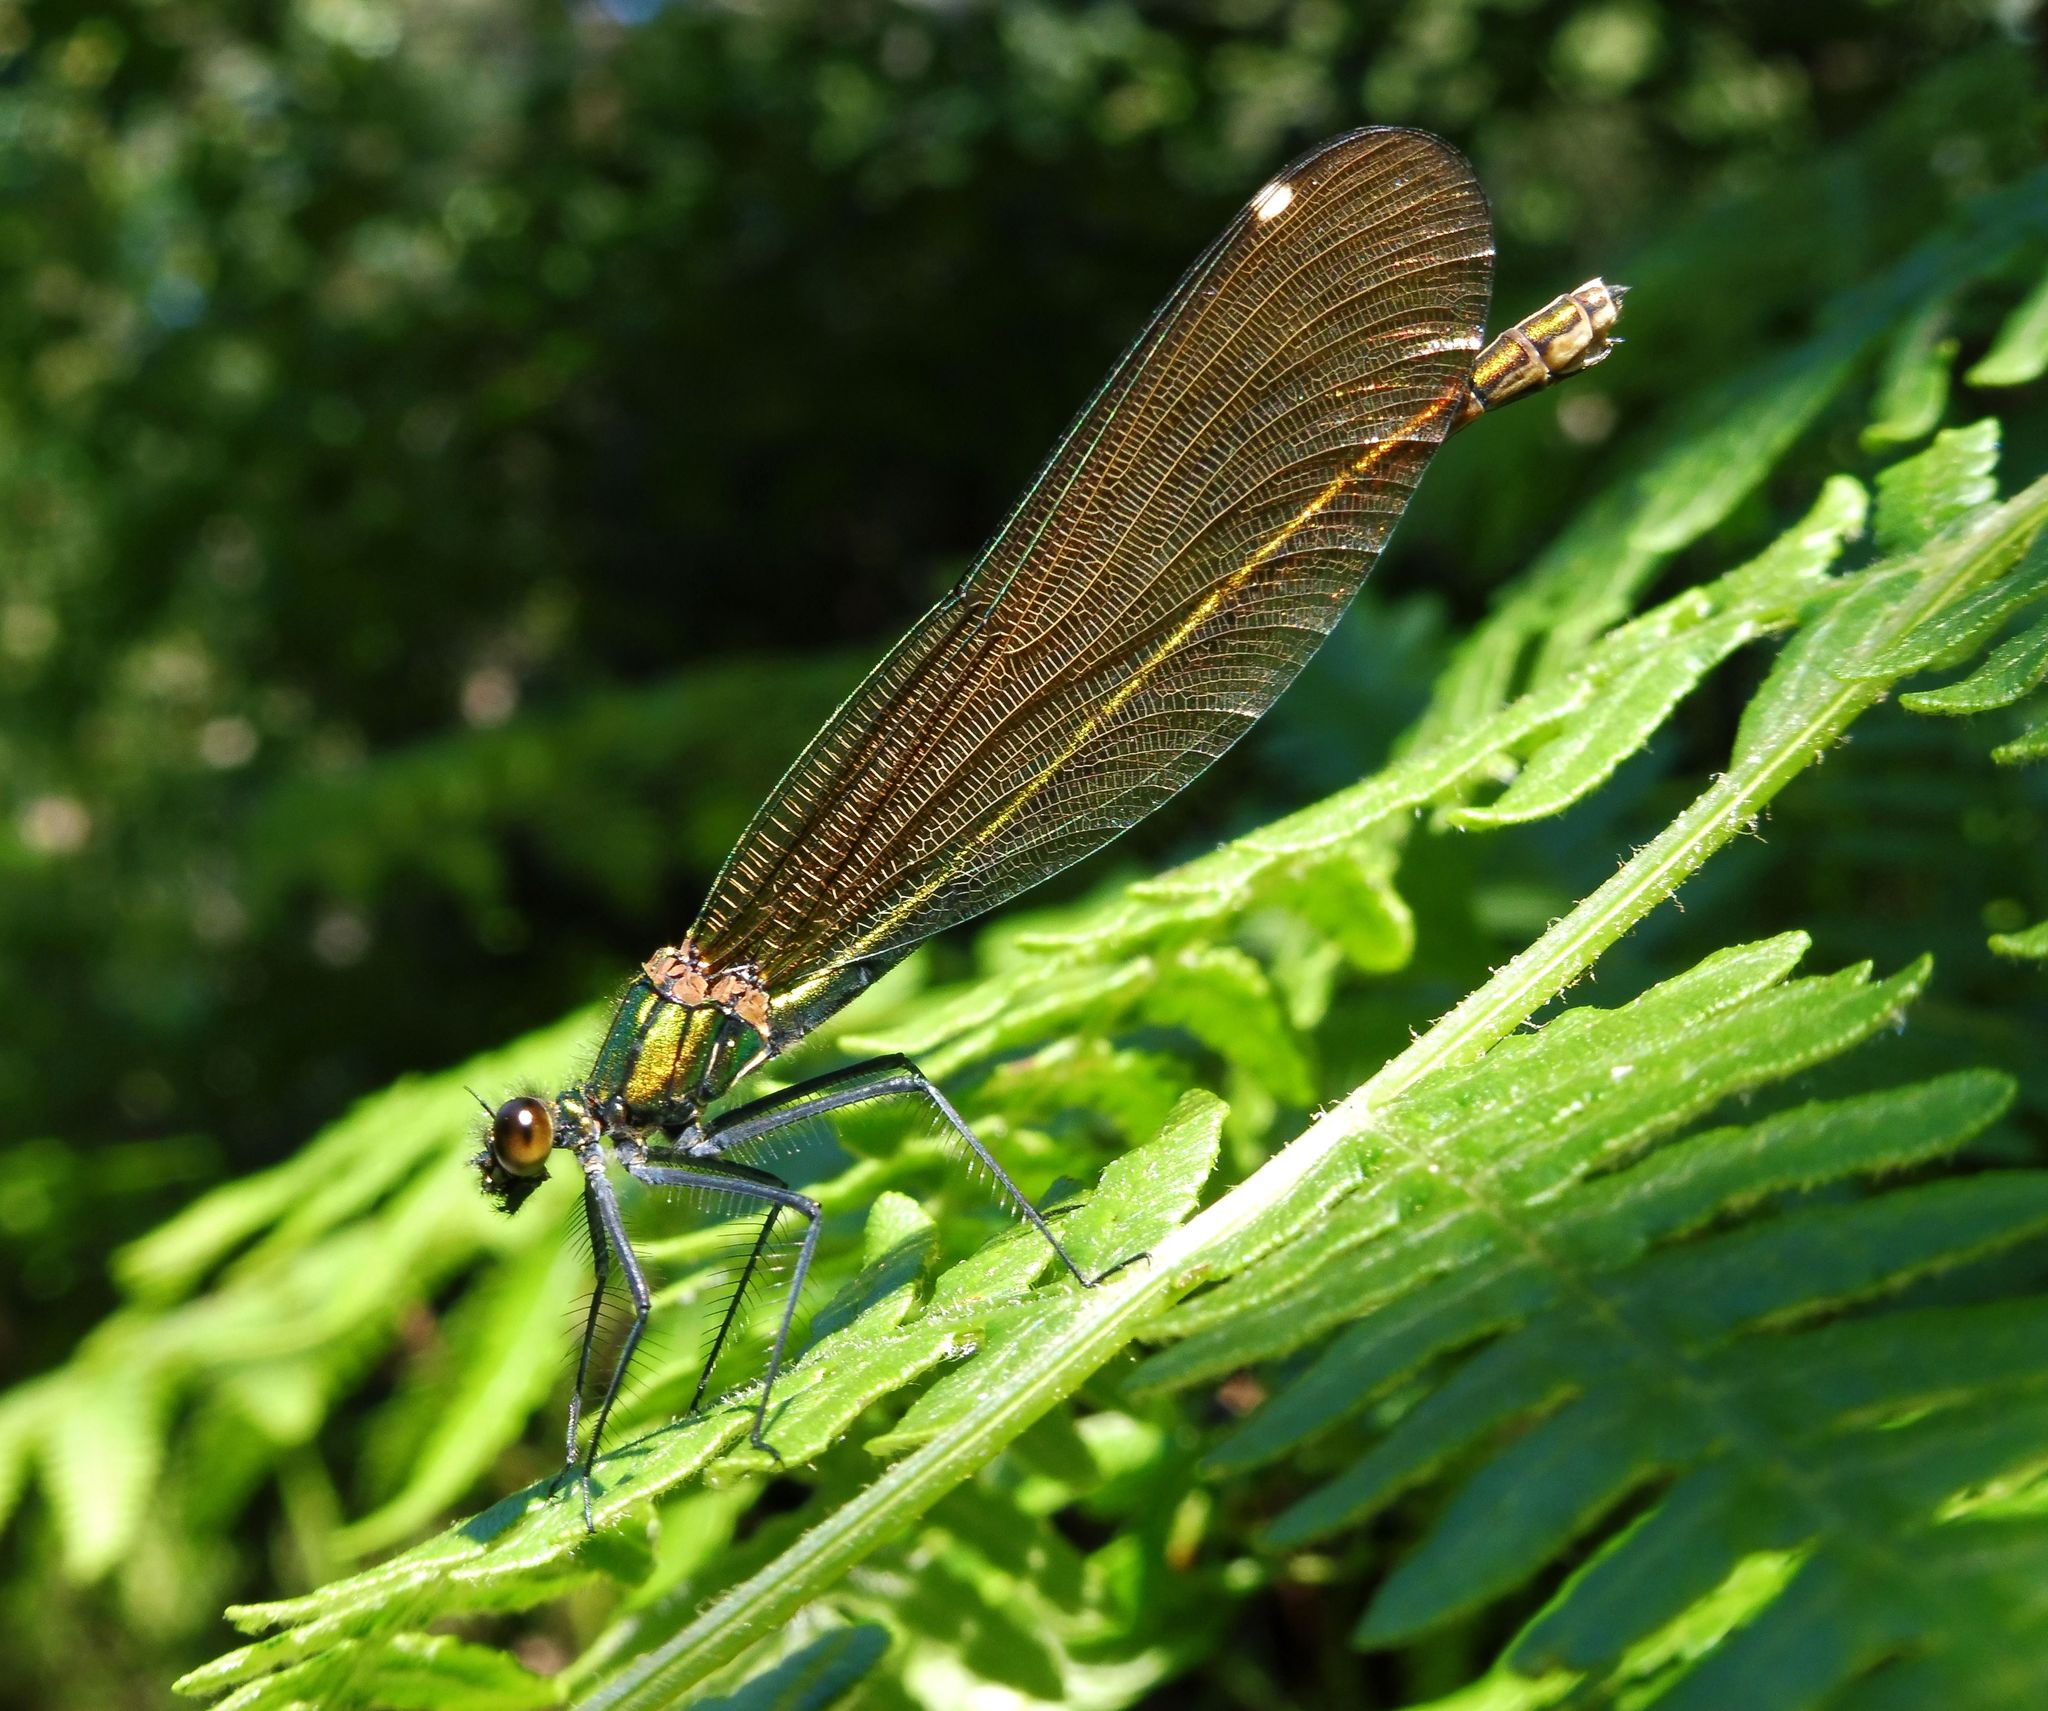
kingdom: Animalia
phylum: Arthropoda
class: Insecta
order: Odonata
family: Calopterygidae
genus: Calopteryx
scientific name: Calopteryx virgo
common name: Beautiful demoiselle
